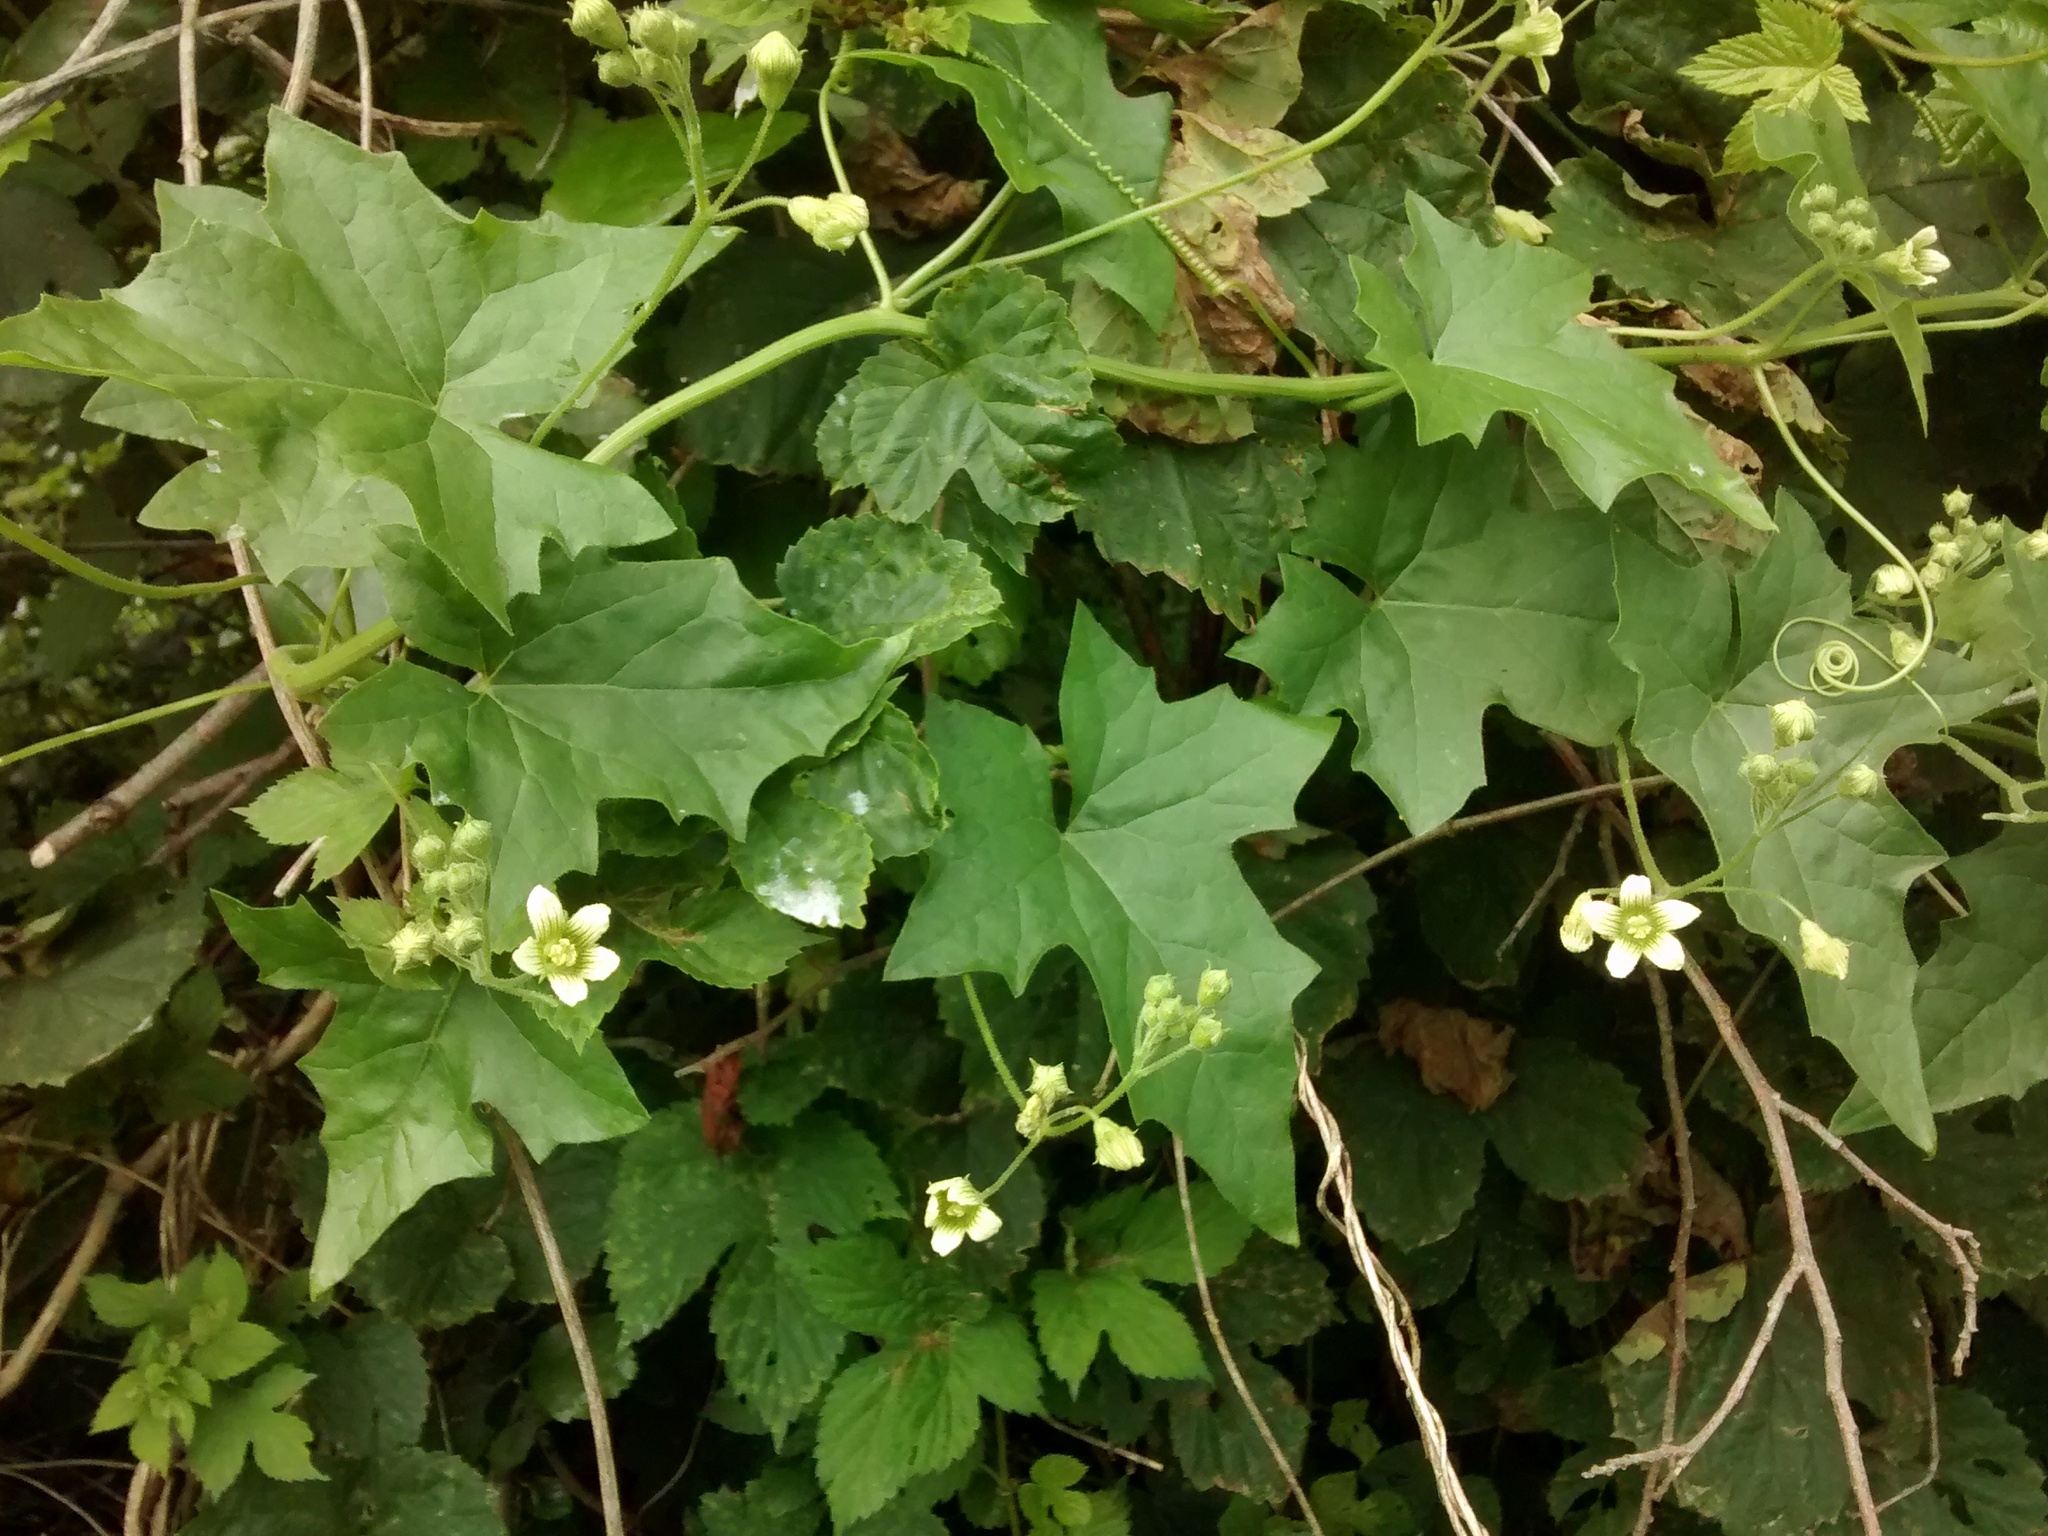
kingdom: Plantae
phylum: Tracheophyta
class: Magnoliopsida
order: Cucurbitales
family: Cucurbitaceae
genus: Bryonia
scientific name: Bryonia dioica
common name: White bryony
